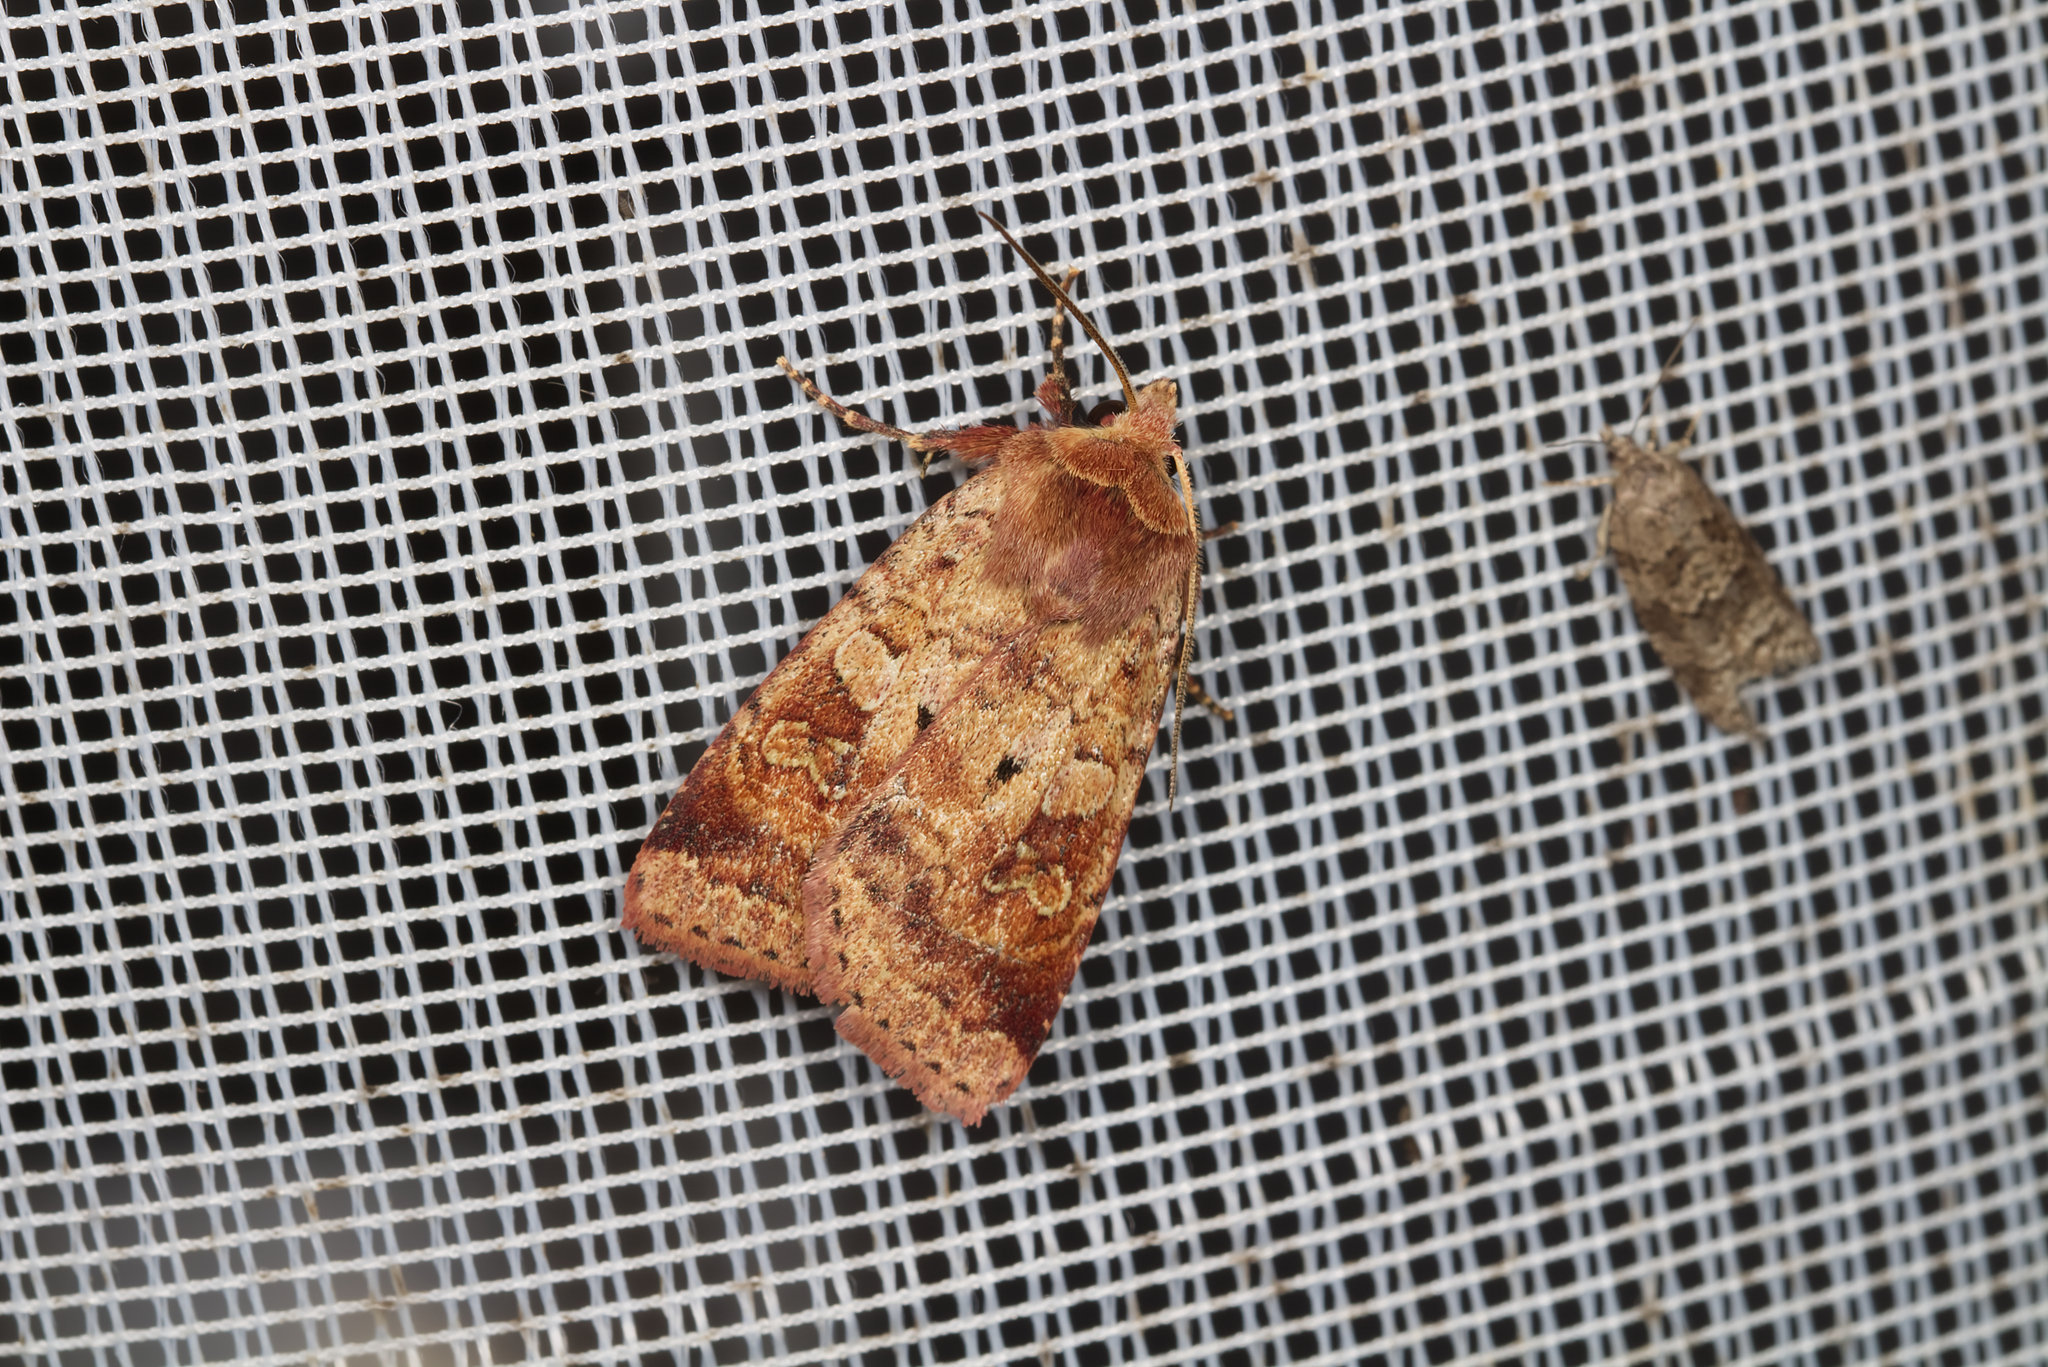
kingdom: Animalia
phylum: Arthropoda
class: Insecta
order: Lepidoptera
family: Noctuidae
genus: Diarsia
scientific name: Diarsia mendica
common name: Ingrailed clay
